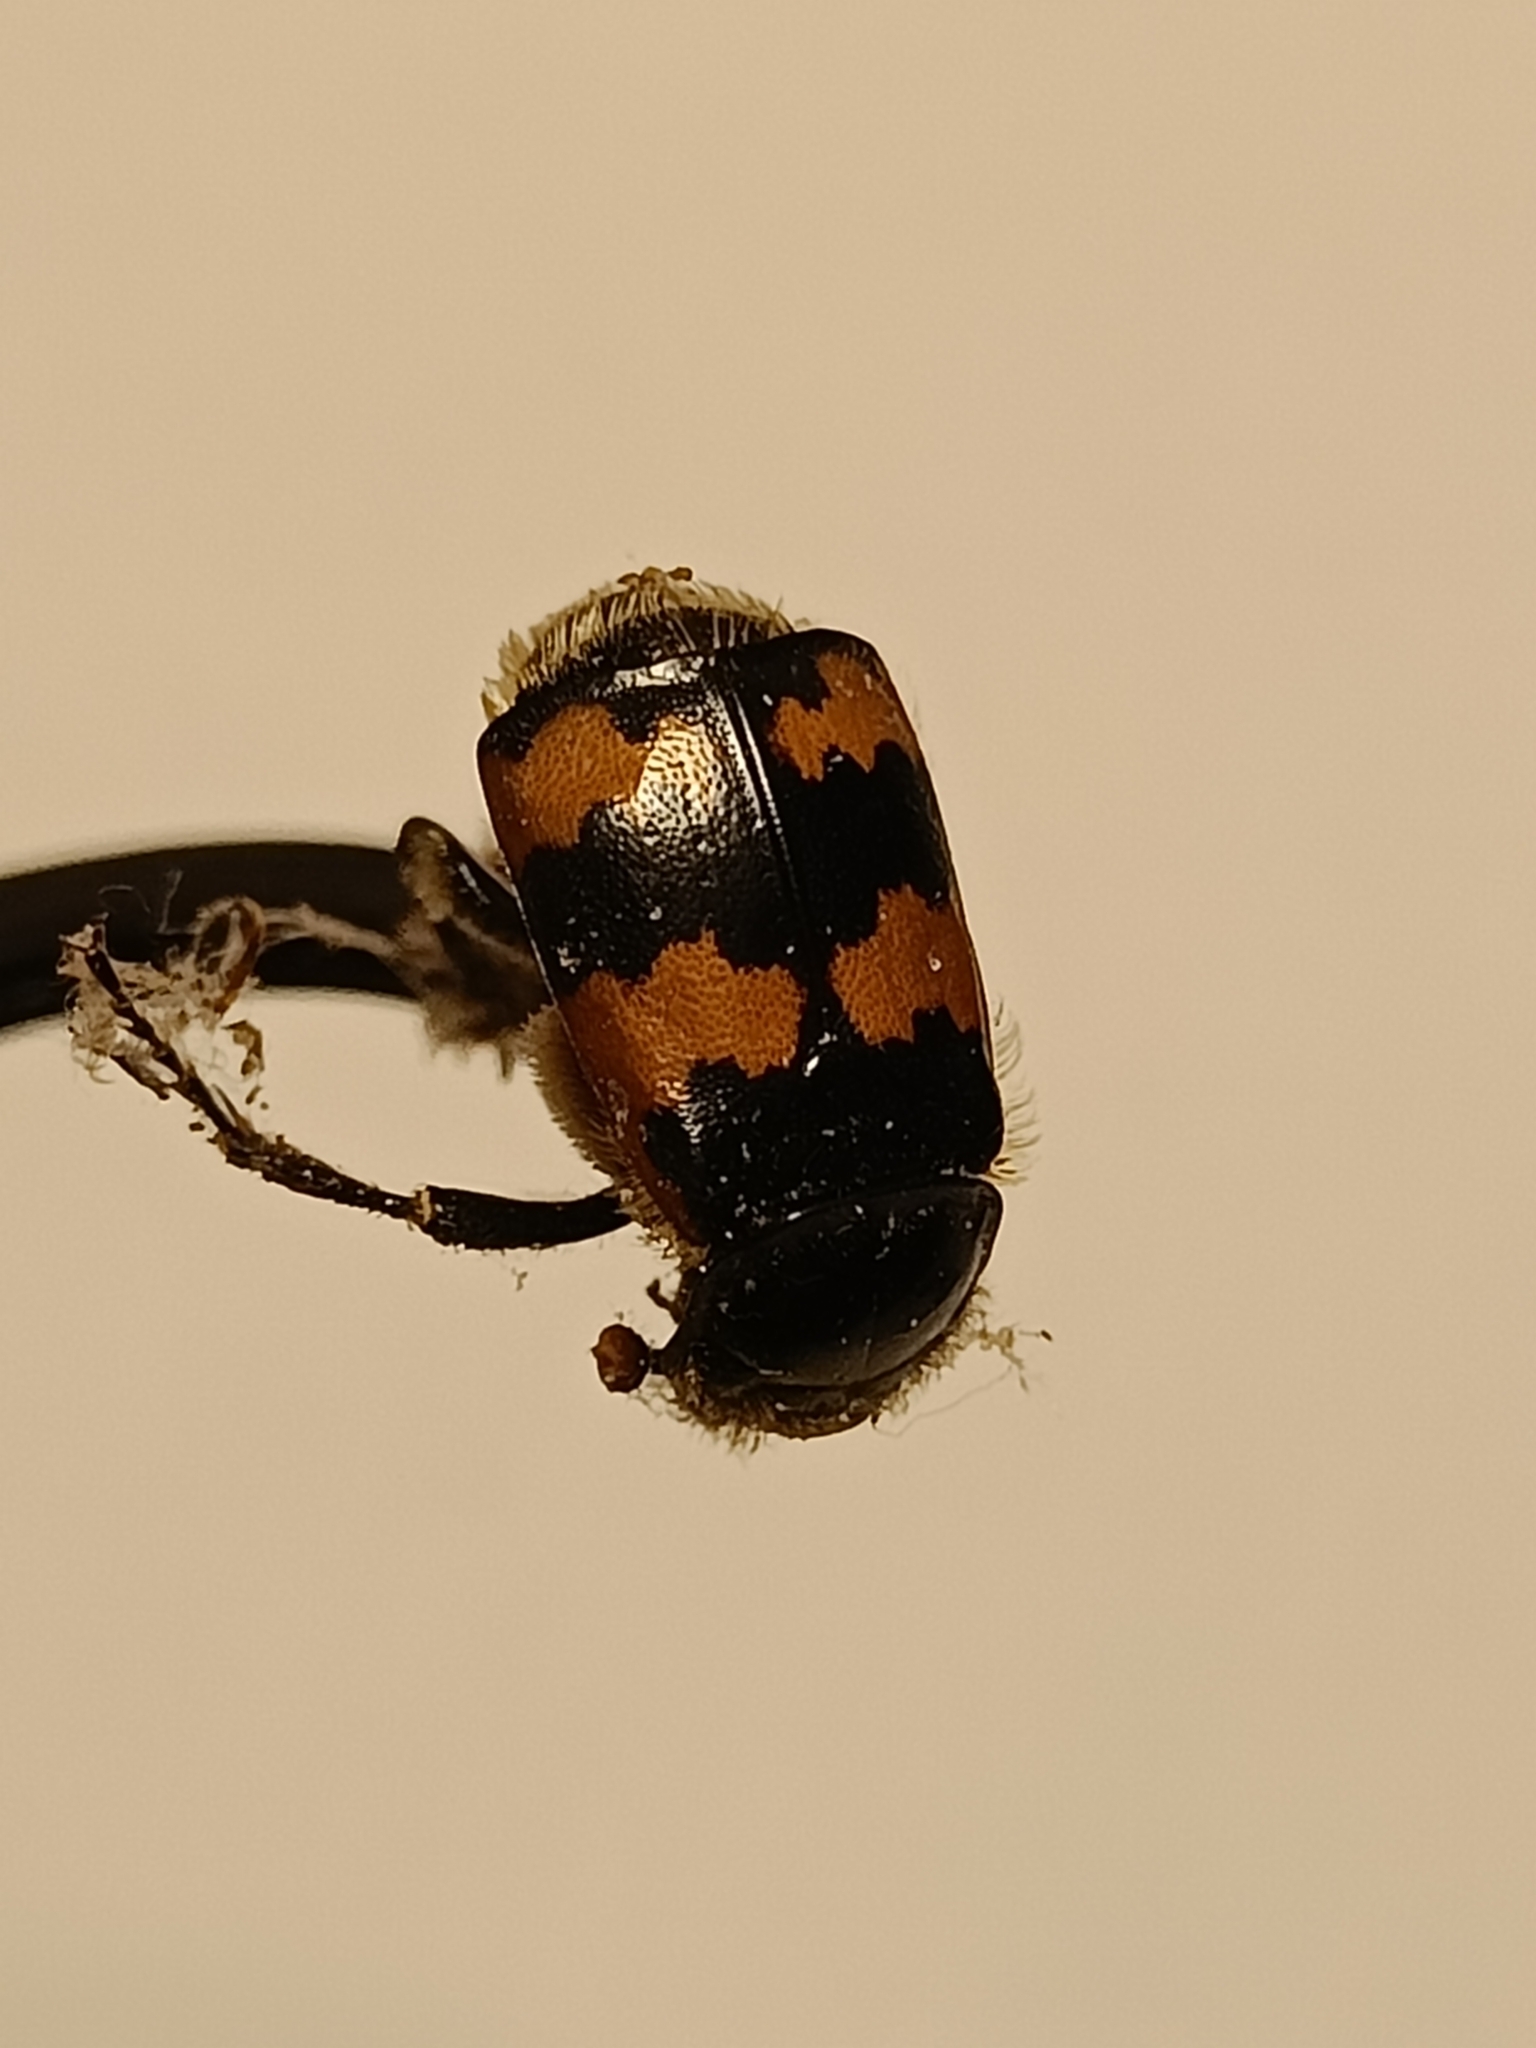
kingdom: Animalia
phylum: Arthropoda
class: Insecta
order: Coleoptera
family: Staphylinidae
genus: Nicrophorus
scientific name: Nicrophorus vespillo
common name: Common burying beetle
